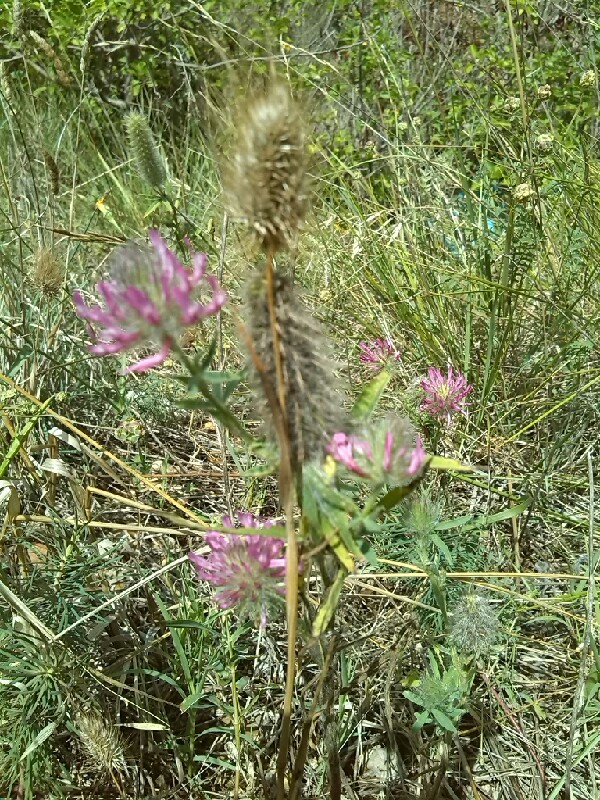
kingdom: Plantae
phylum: Tracheophyta
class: Magnoliopsida
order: Fabales
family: Fabaceae
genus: Trifolium
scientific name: Trifolium rubens
